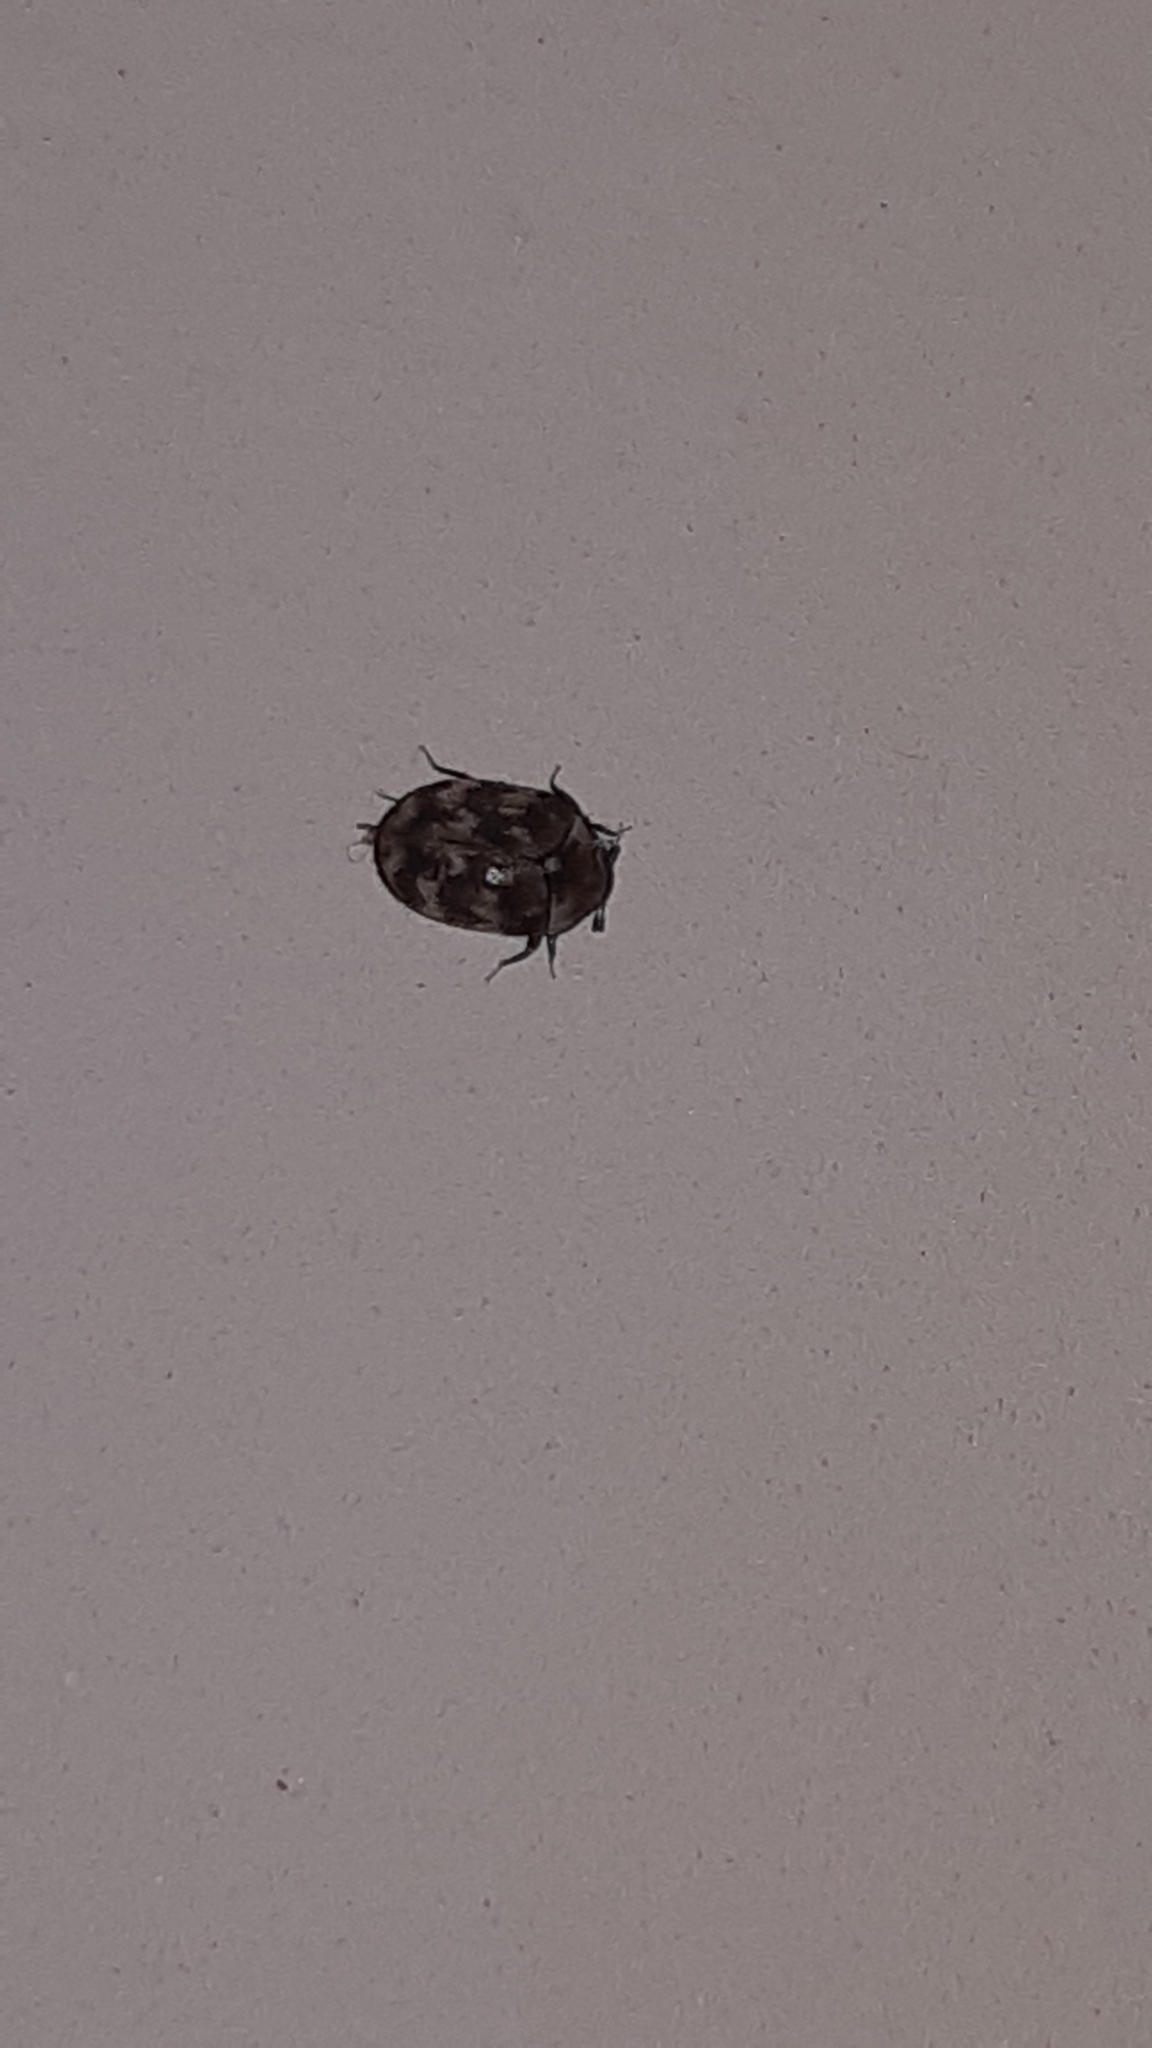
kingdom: Animalia
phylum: Arthropoda
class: Insecta
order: Coleoptera
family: Dermestidae
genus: Anthrenus
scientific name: Anthrenus verbasci
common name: Varied carpet beetle
